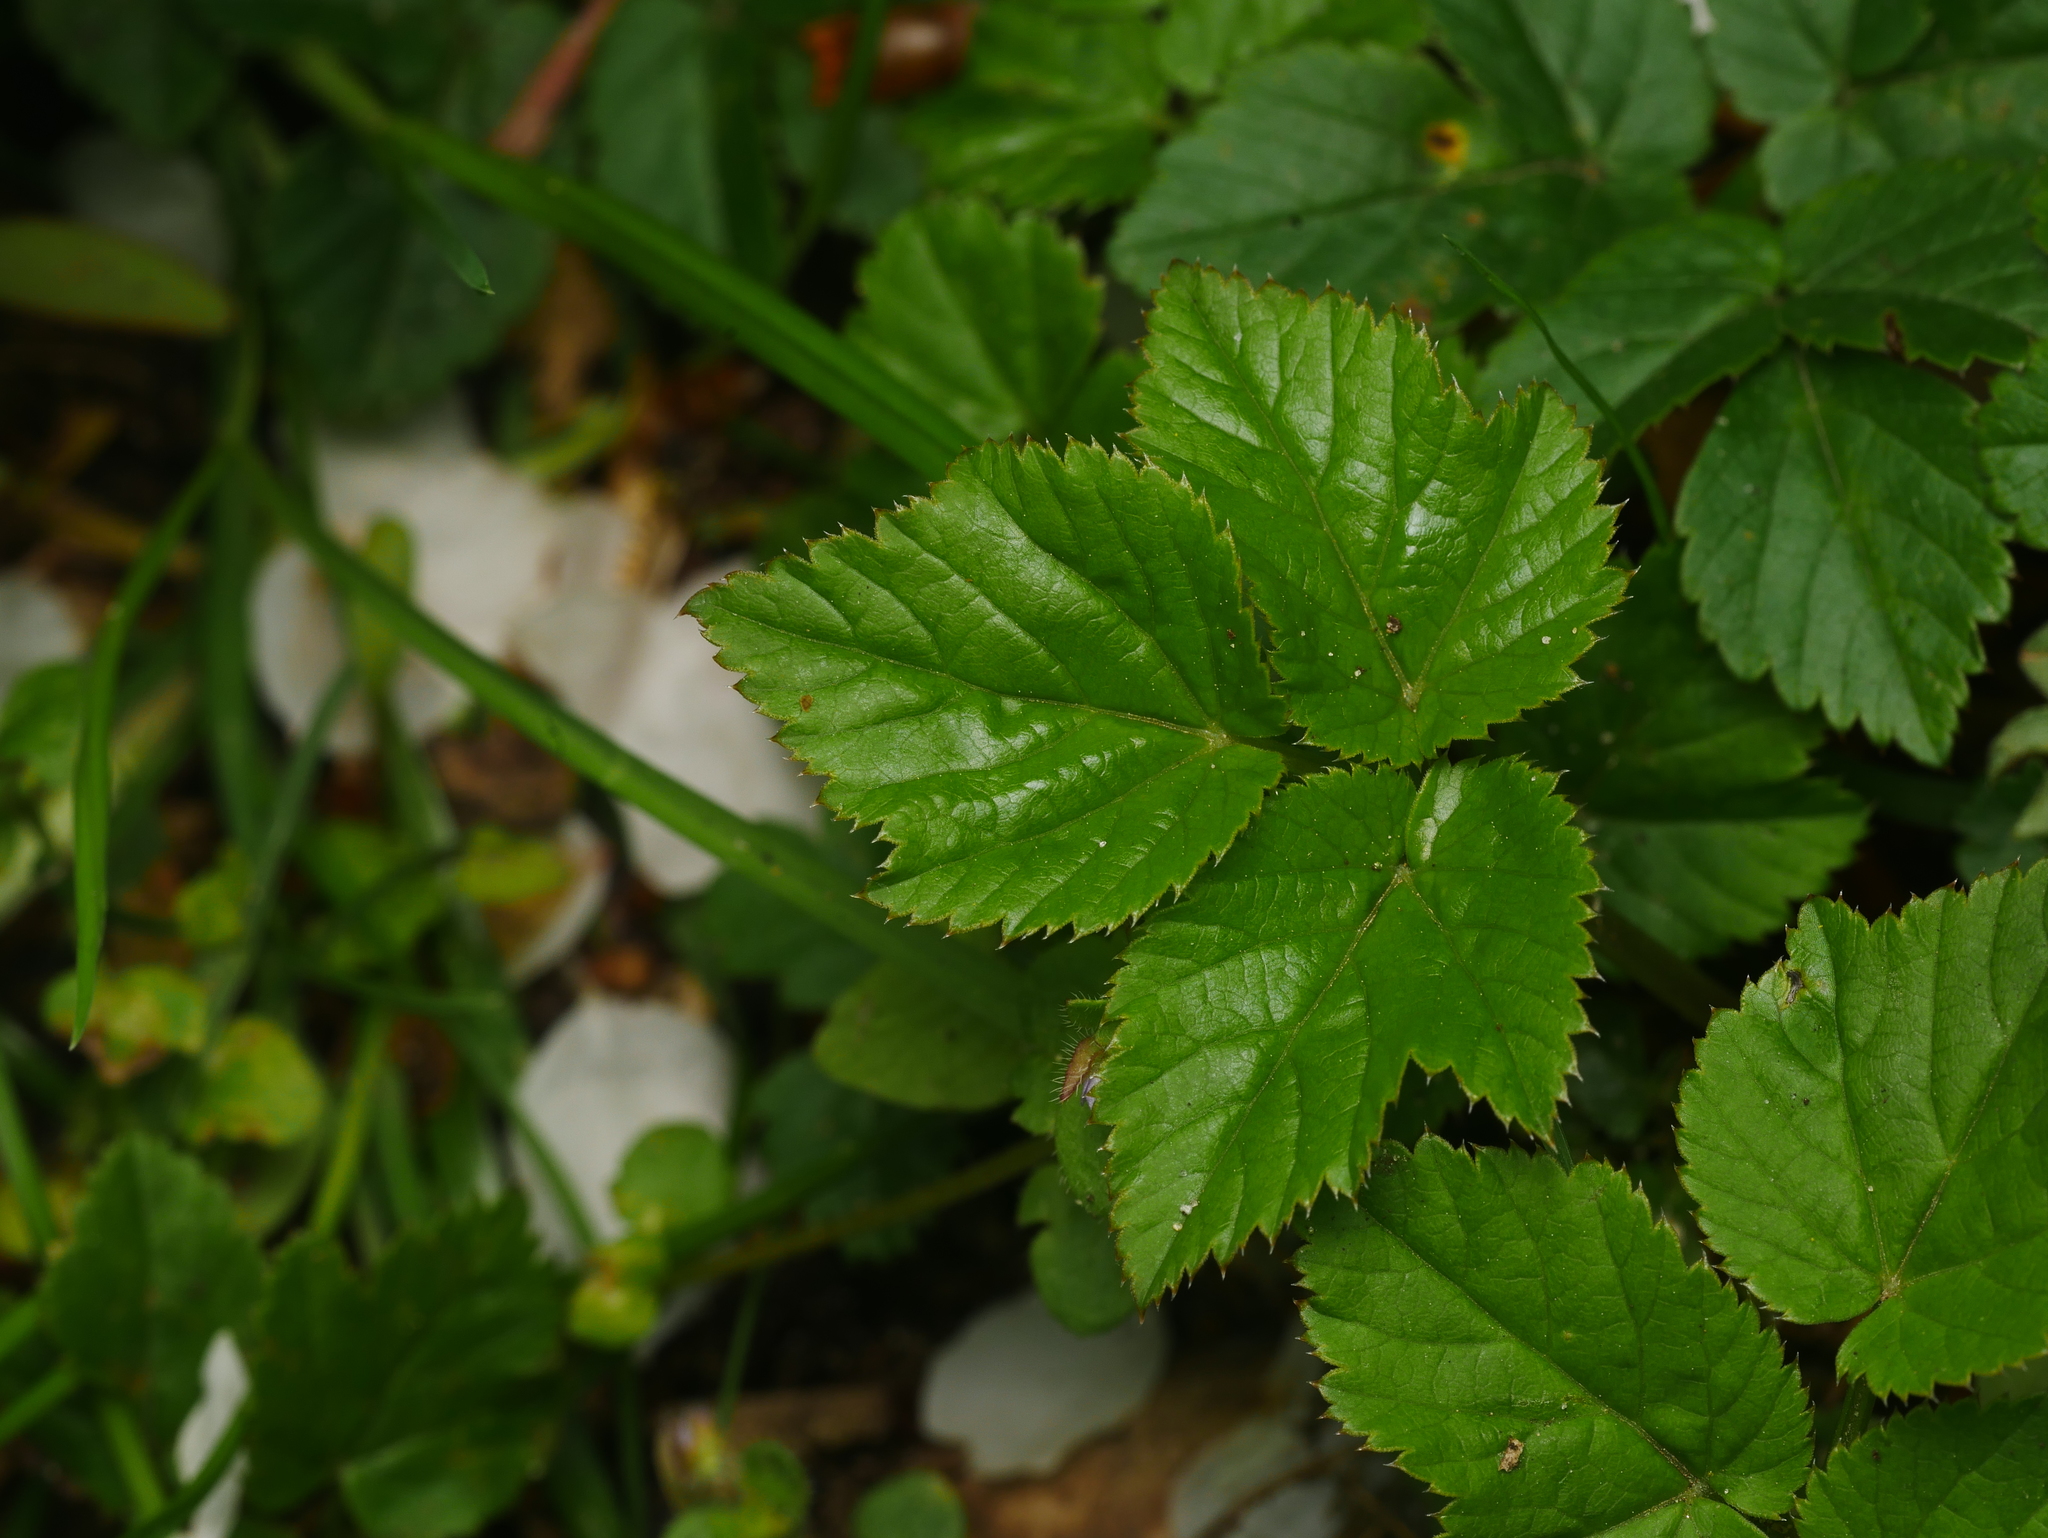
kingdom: Plantae
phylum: Tracheophyta
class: Magnoliopsida
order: Apiales
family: Apiaceae
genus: Aegopodium
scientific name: Aegopodium podagraria
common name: Ground-elder
